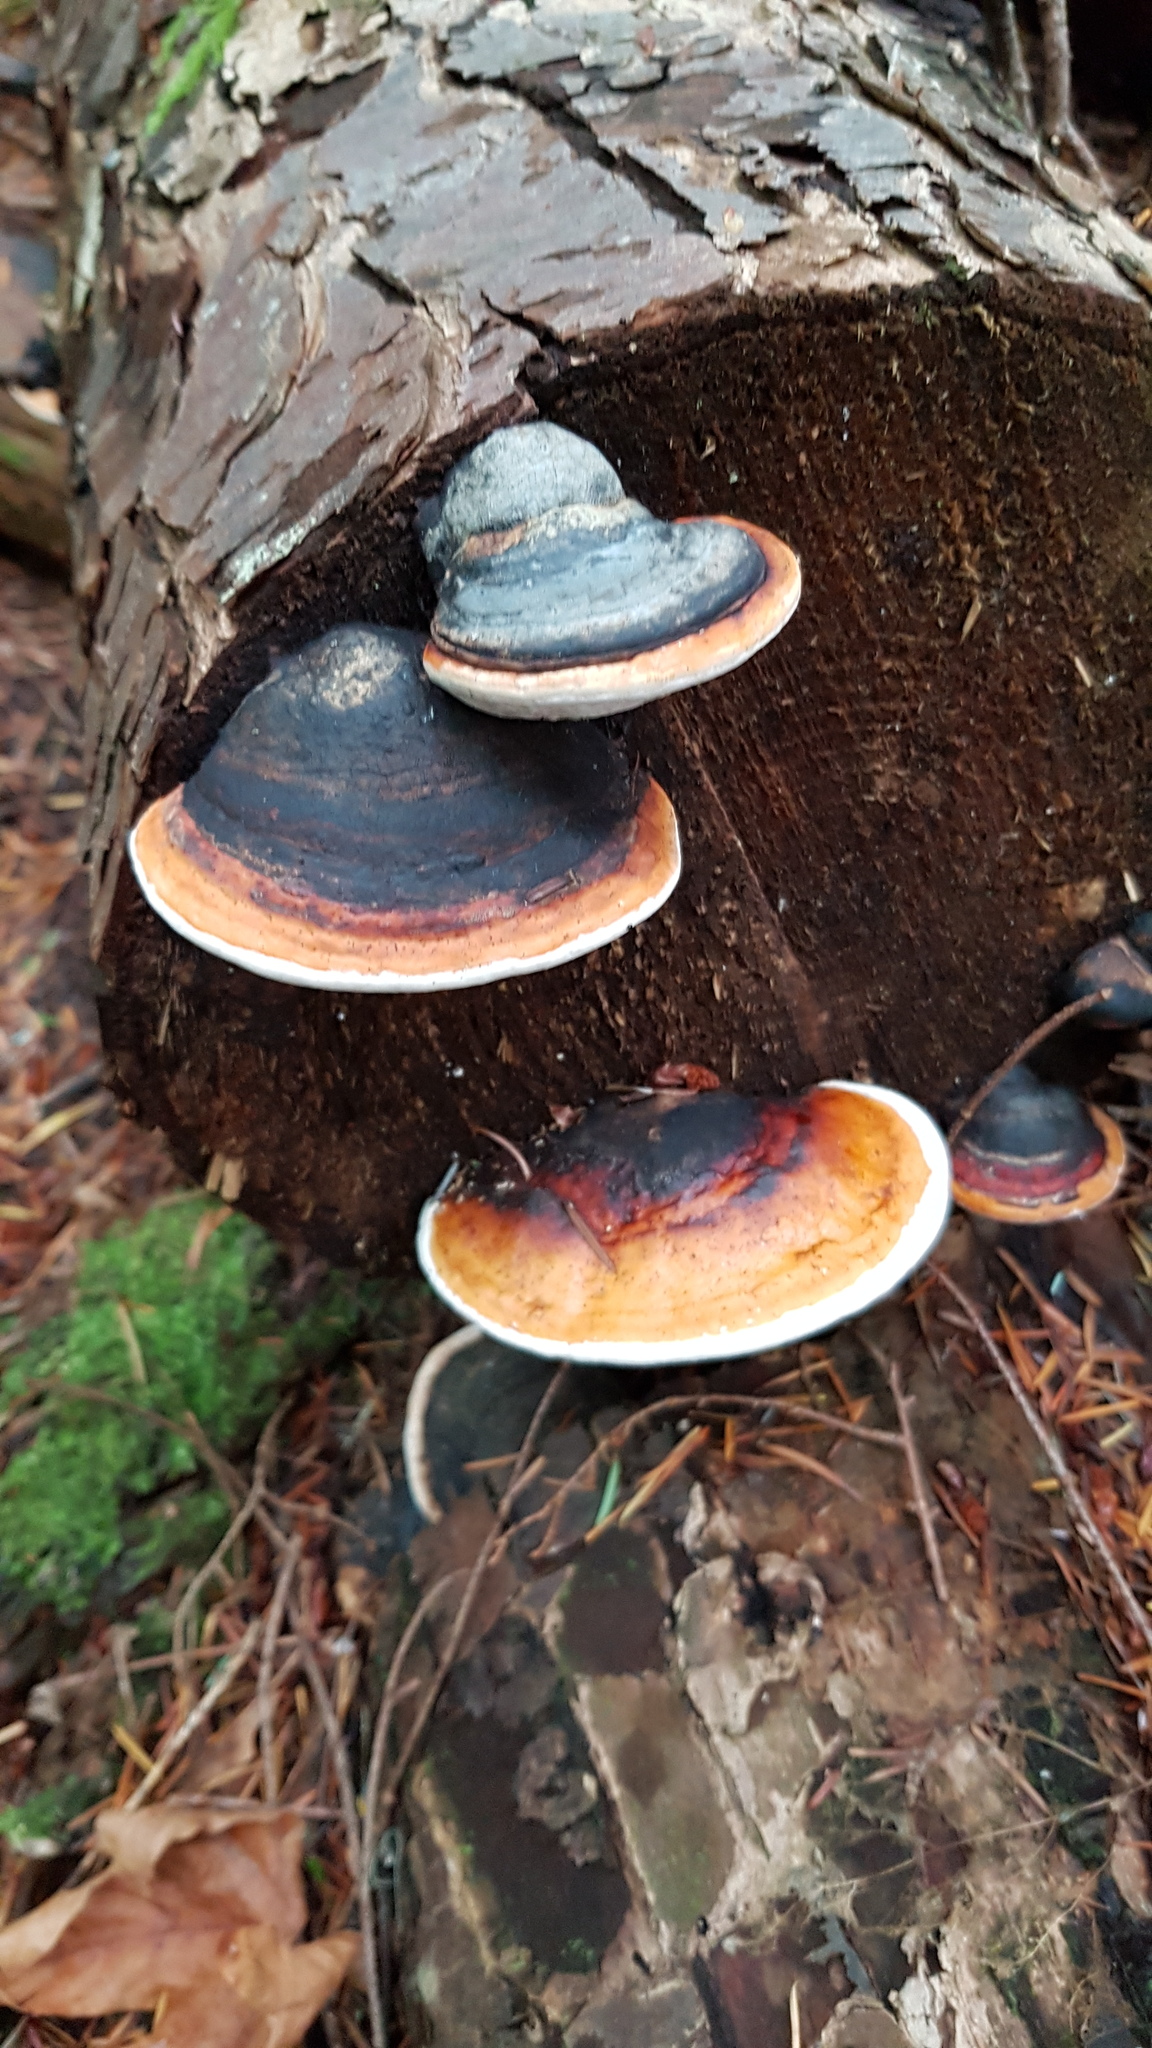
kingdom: Fungi
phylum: Basidiomycota
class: Agaricomycetes
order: Polyporales
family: Fomitopsidaceae
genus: Fomitopsis
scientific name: Fomitopsis mounceae
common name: Northern red belt
